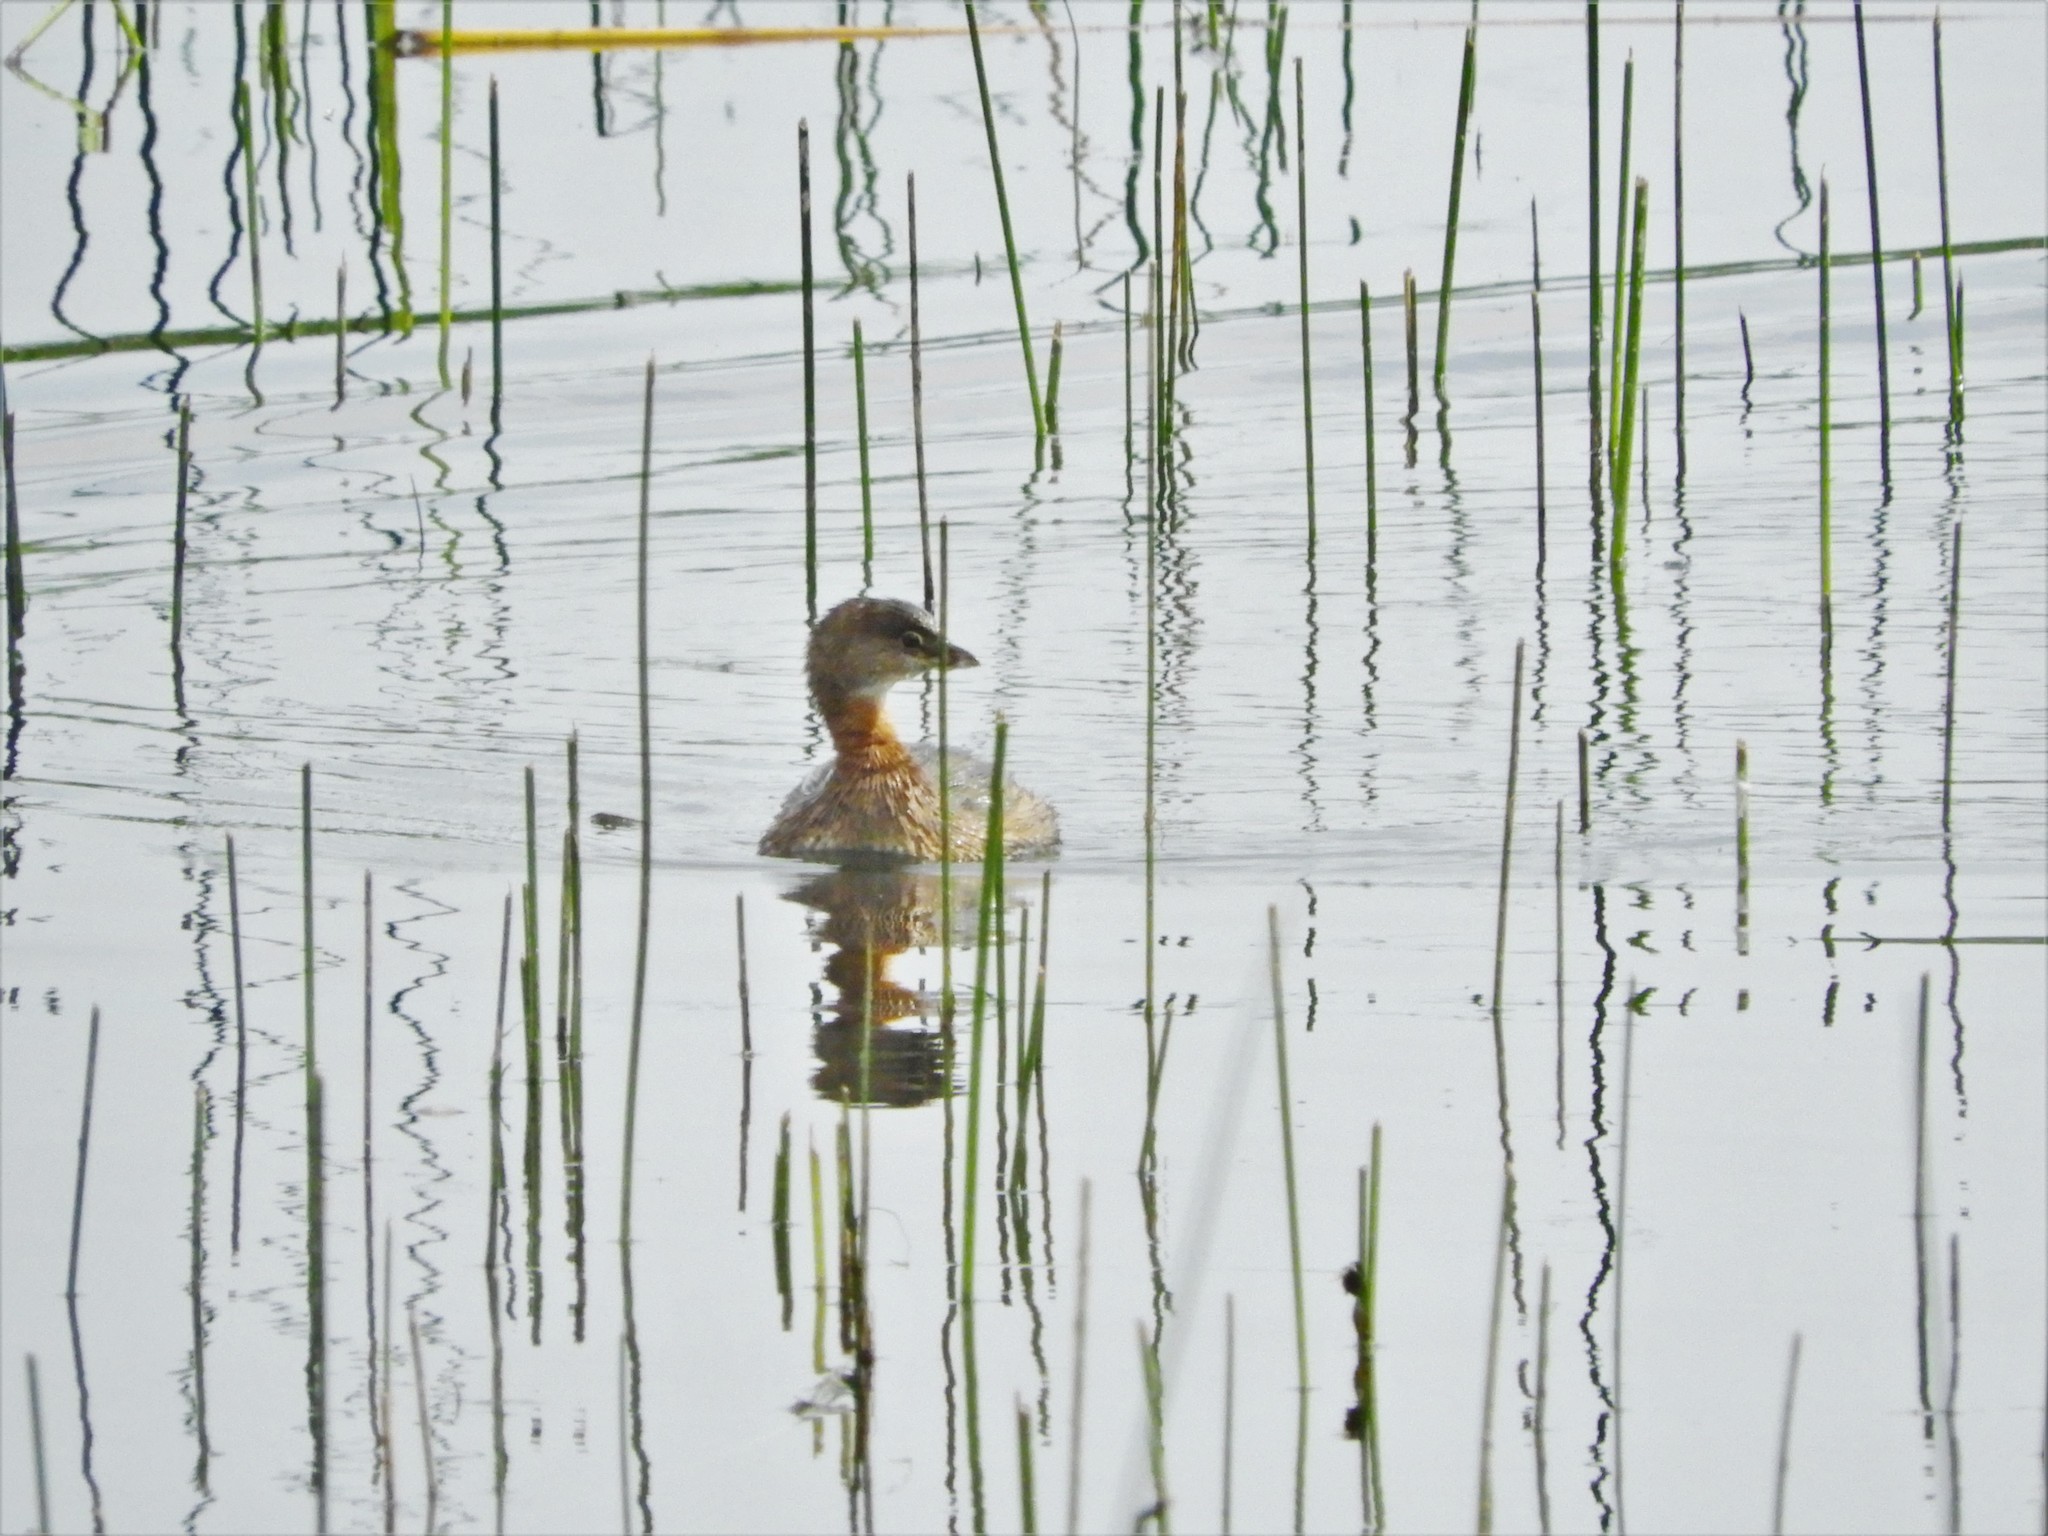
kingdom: Animalia
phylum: Chordata
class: Aves
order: Podicipediformes
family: Podicipedidae
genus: Podilymbus
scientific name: Podilymbus podiceps
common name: Pied-billed grebe
